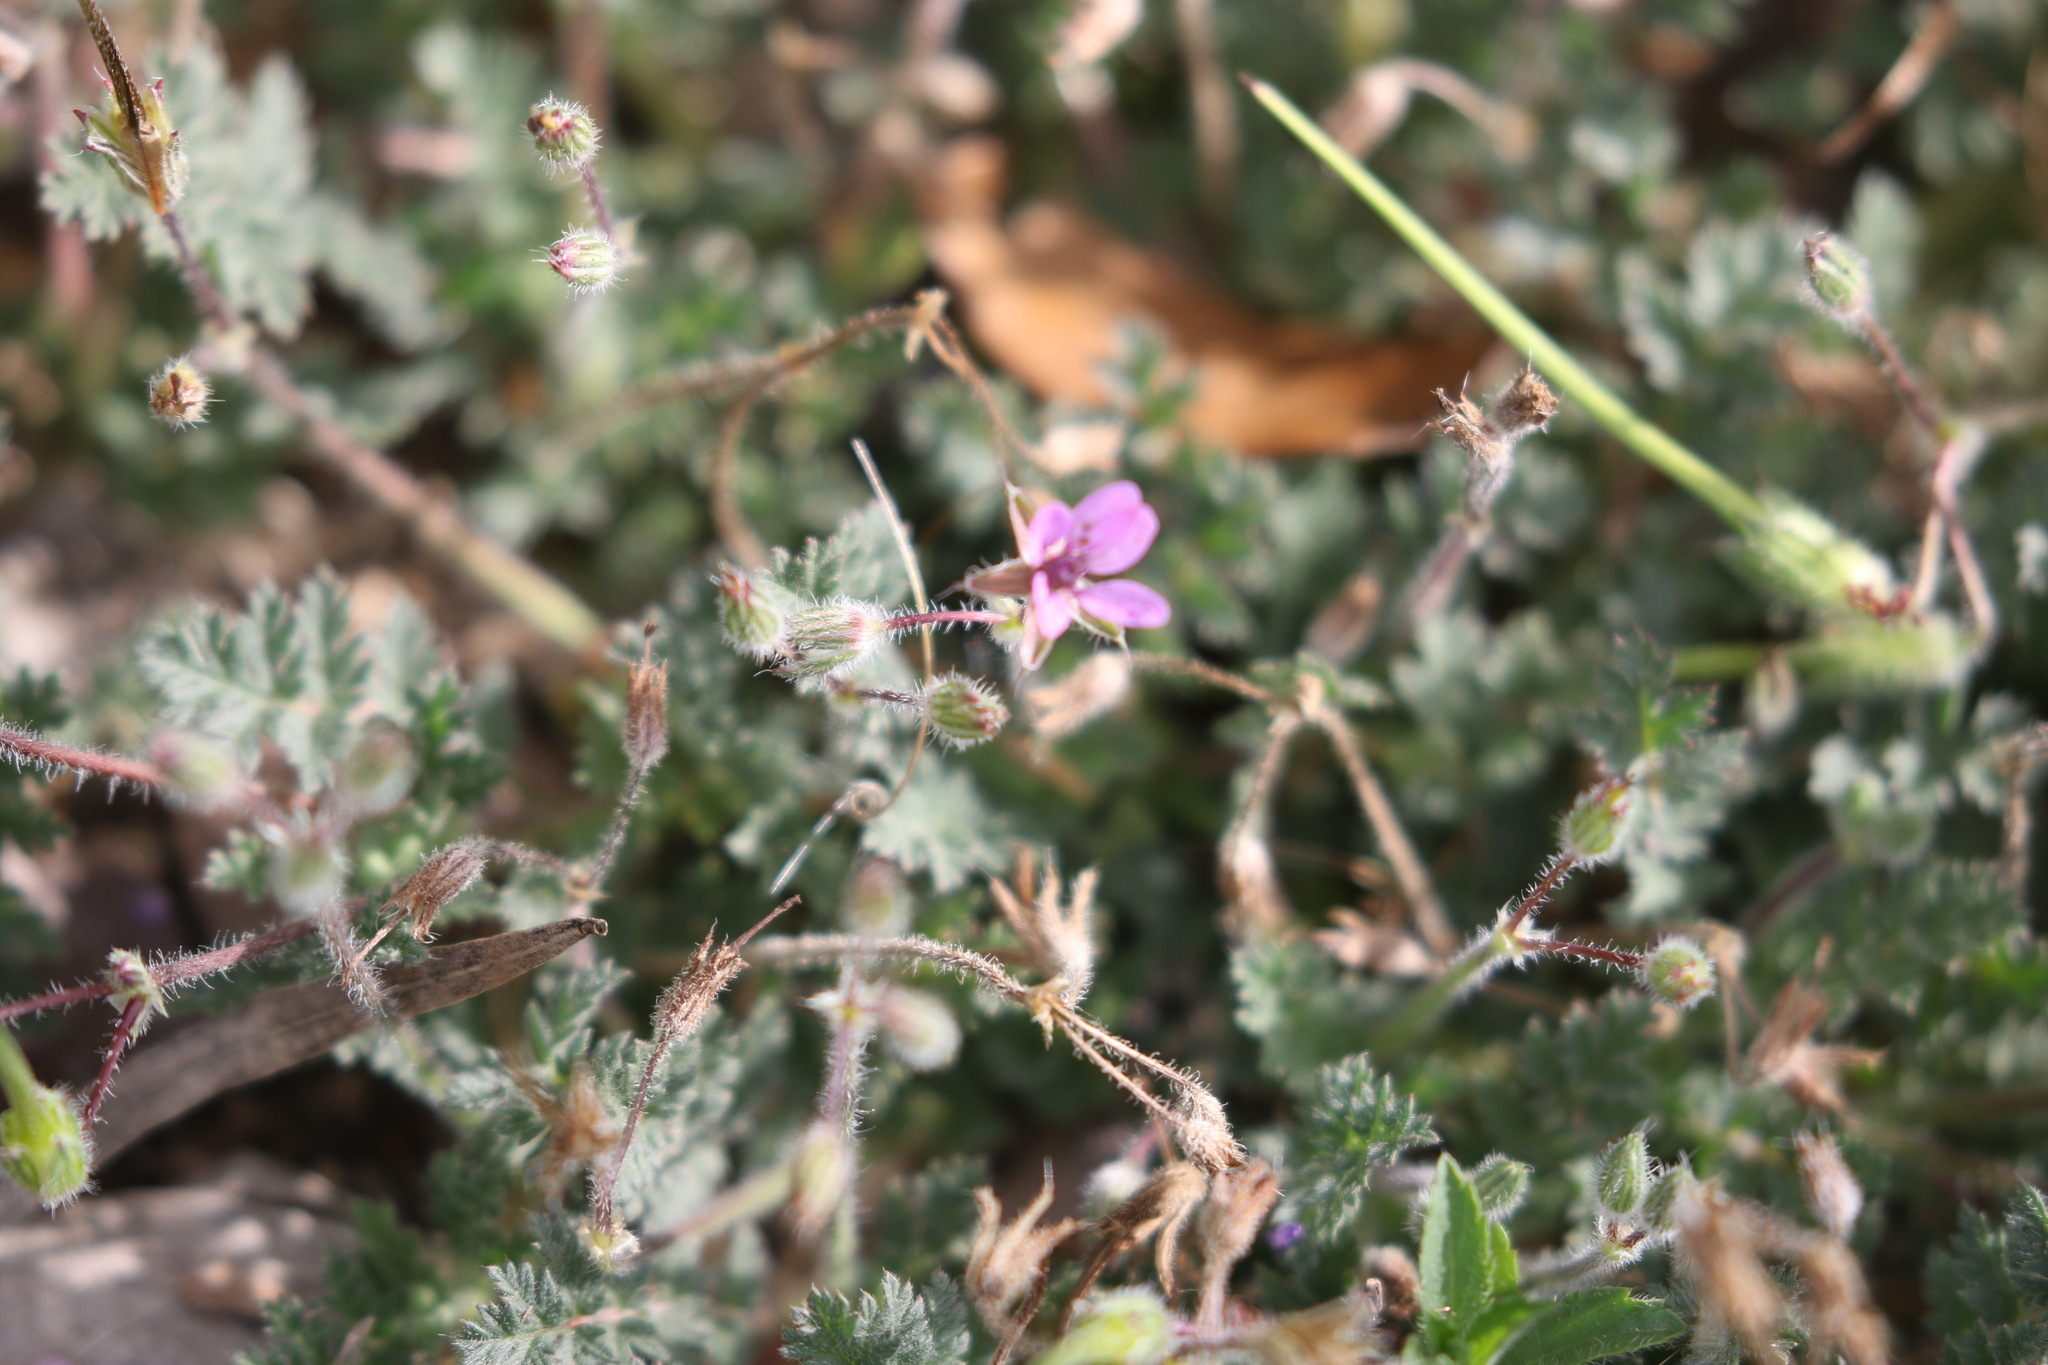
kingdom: Plantae
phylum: Tracheophyta
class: Magnoliopsida
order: Geraniales
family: Geraniaceae
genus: Erodium
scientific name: Erodium cicutarium
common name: Common stork's-bill
